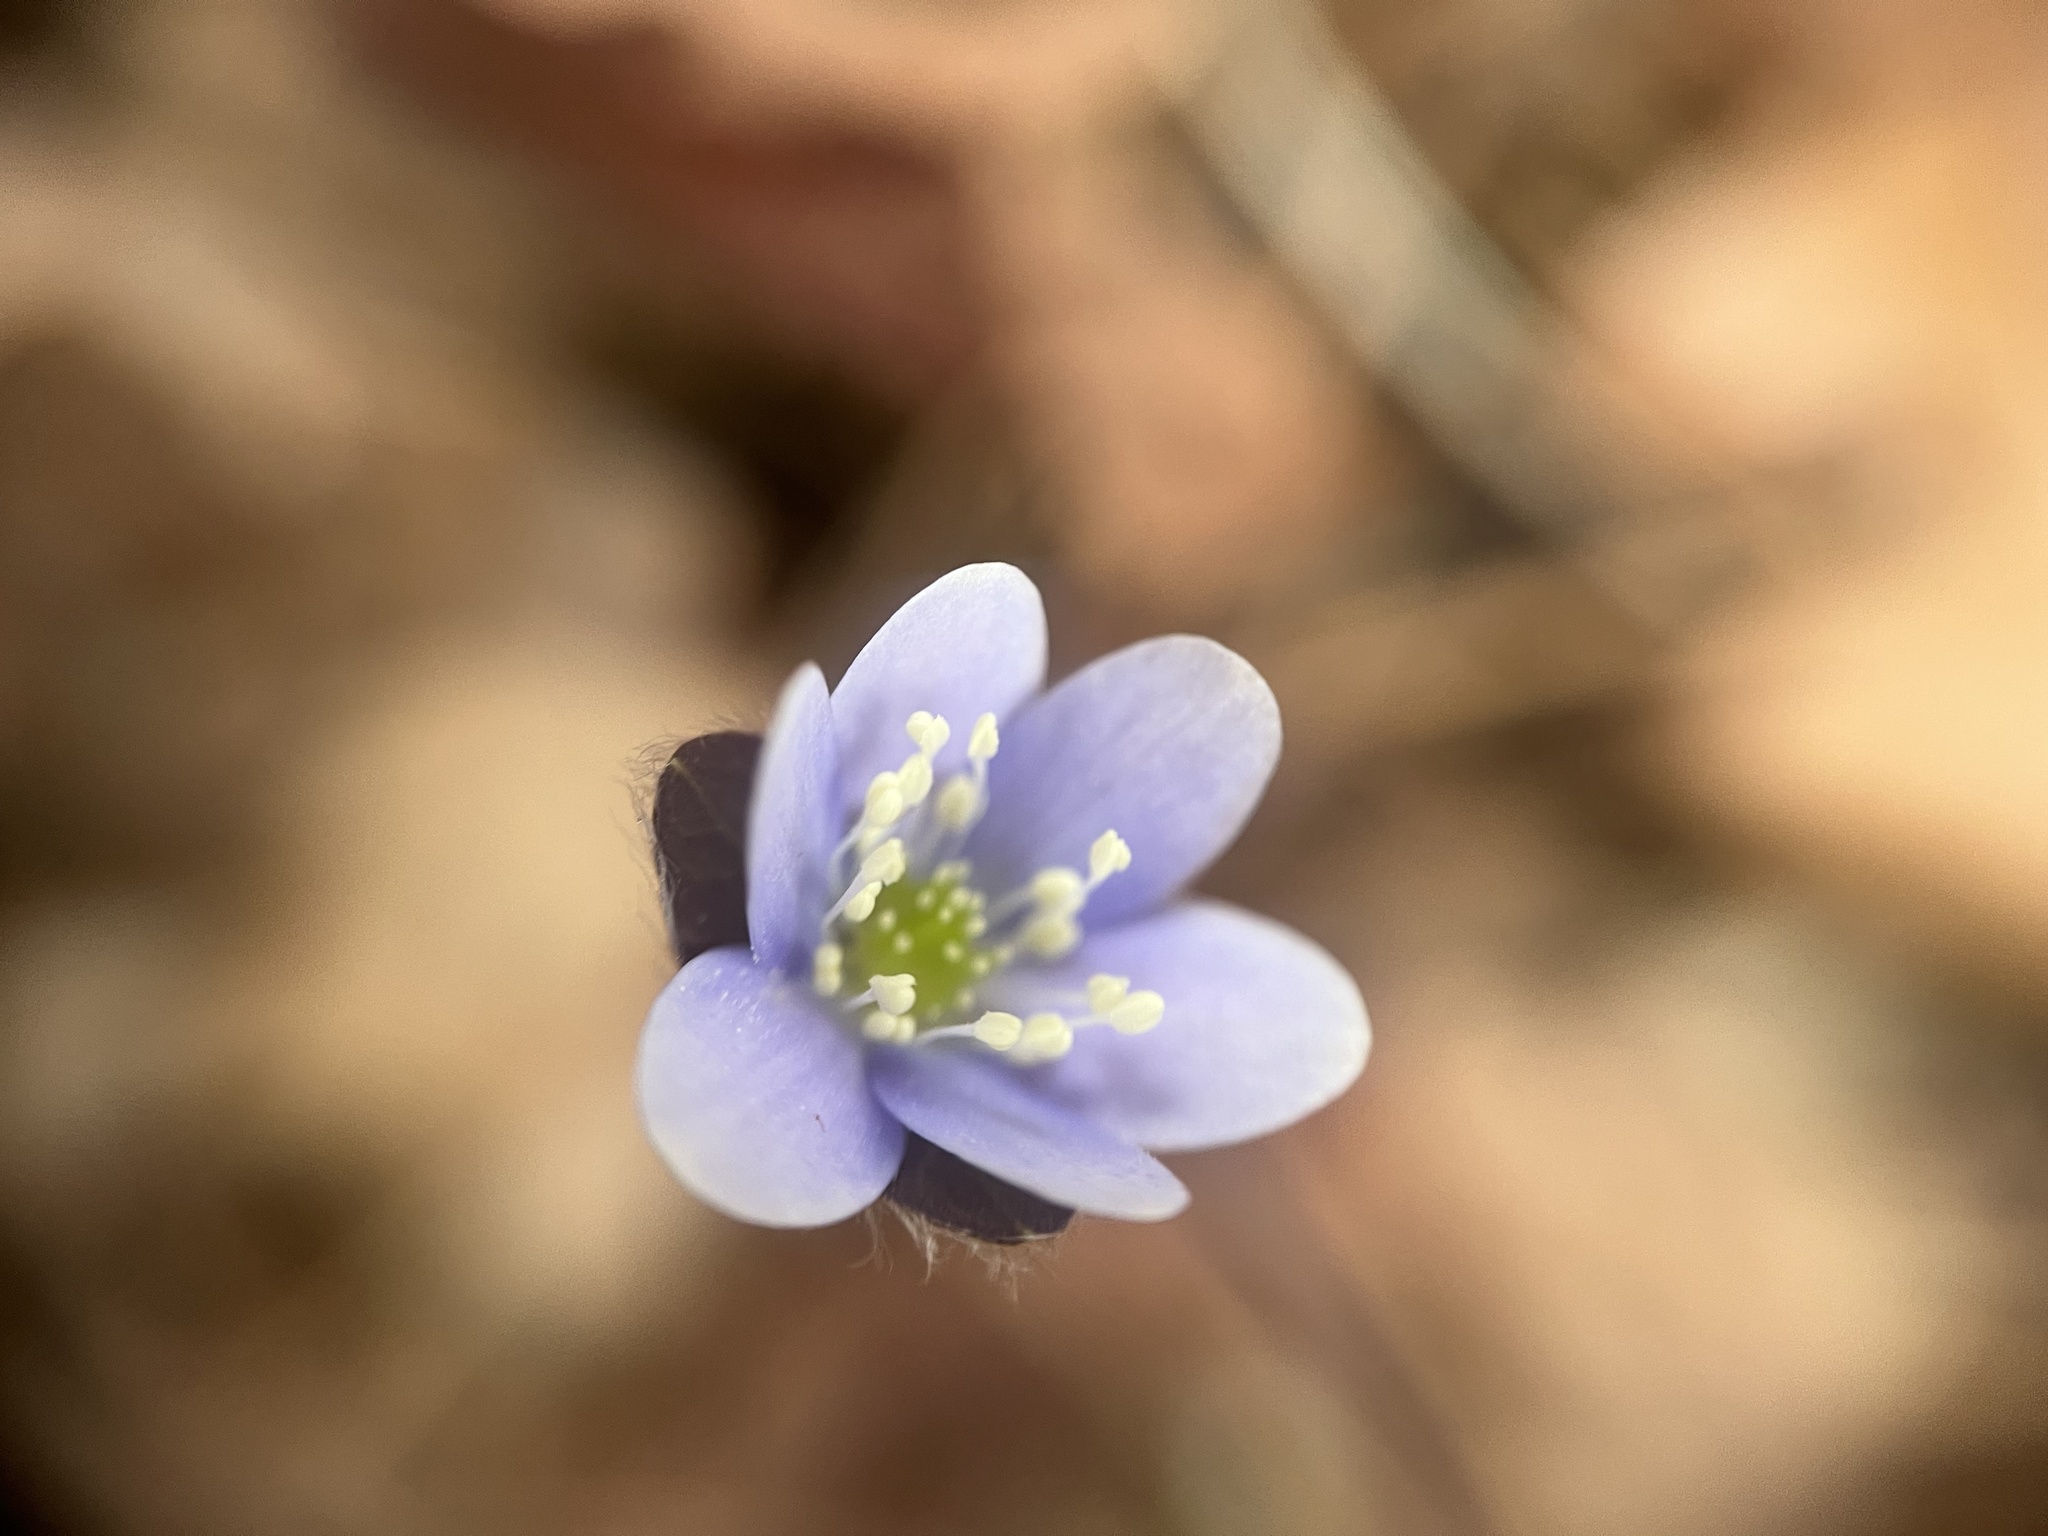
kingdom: Plantae
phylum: Tracheophyta
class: Magnoliopsida
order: Ranunculales
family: Ranunculaceae
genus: Hepatica
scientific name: Hepatica americana
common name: American hepatica
